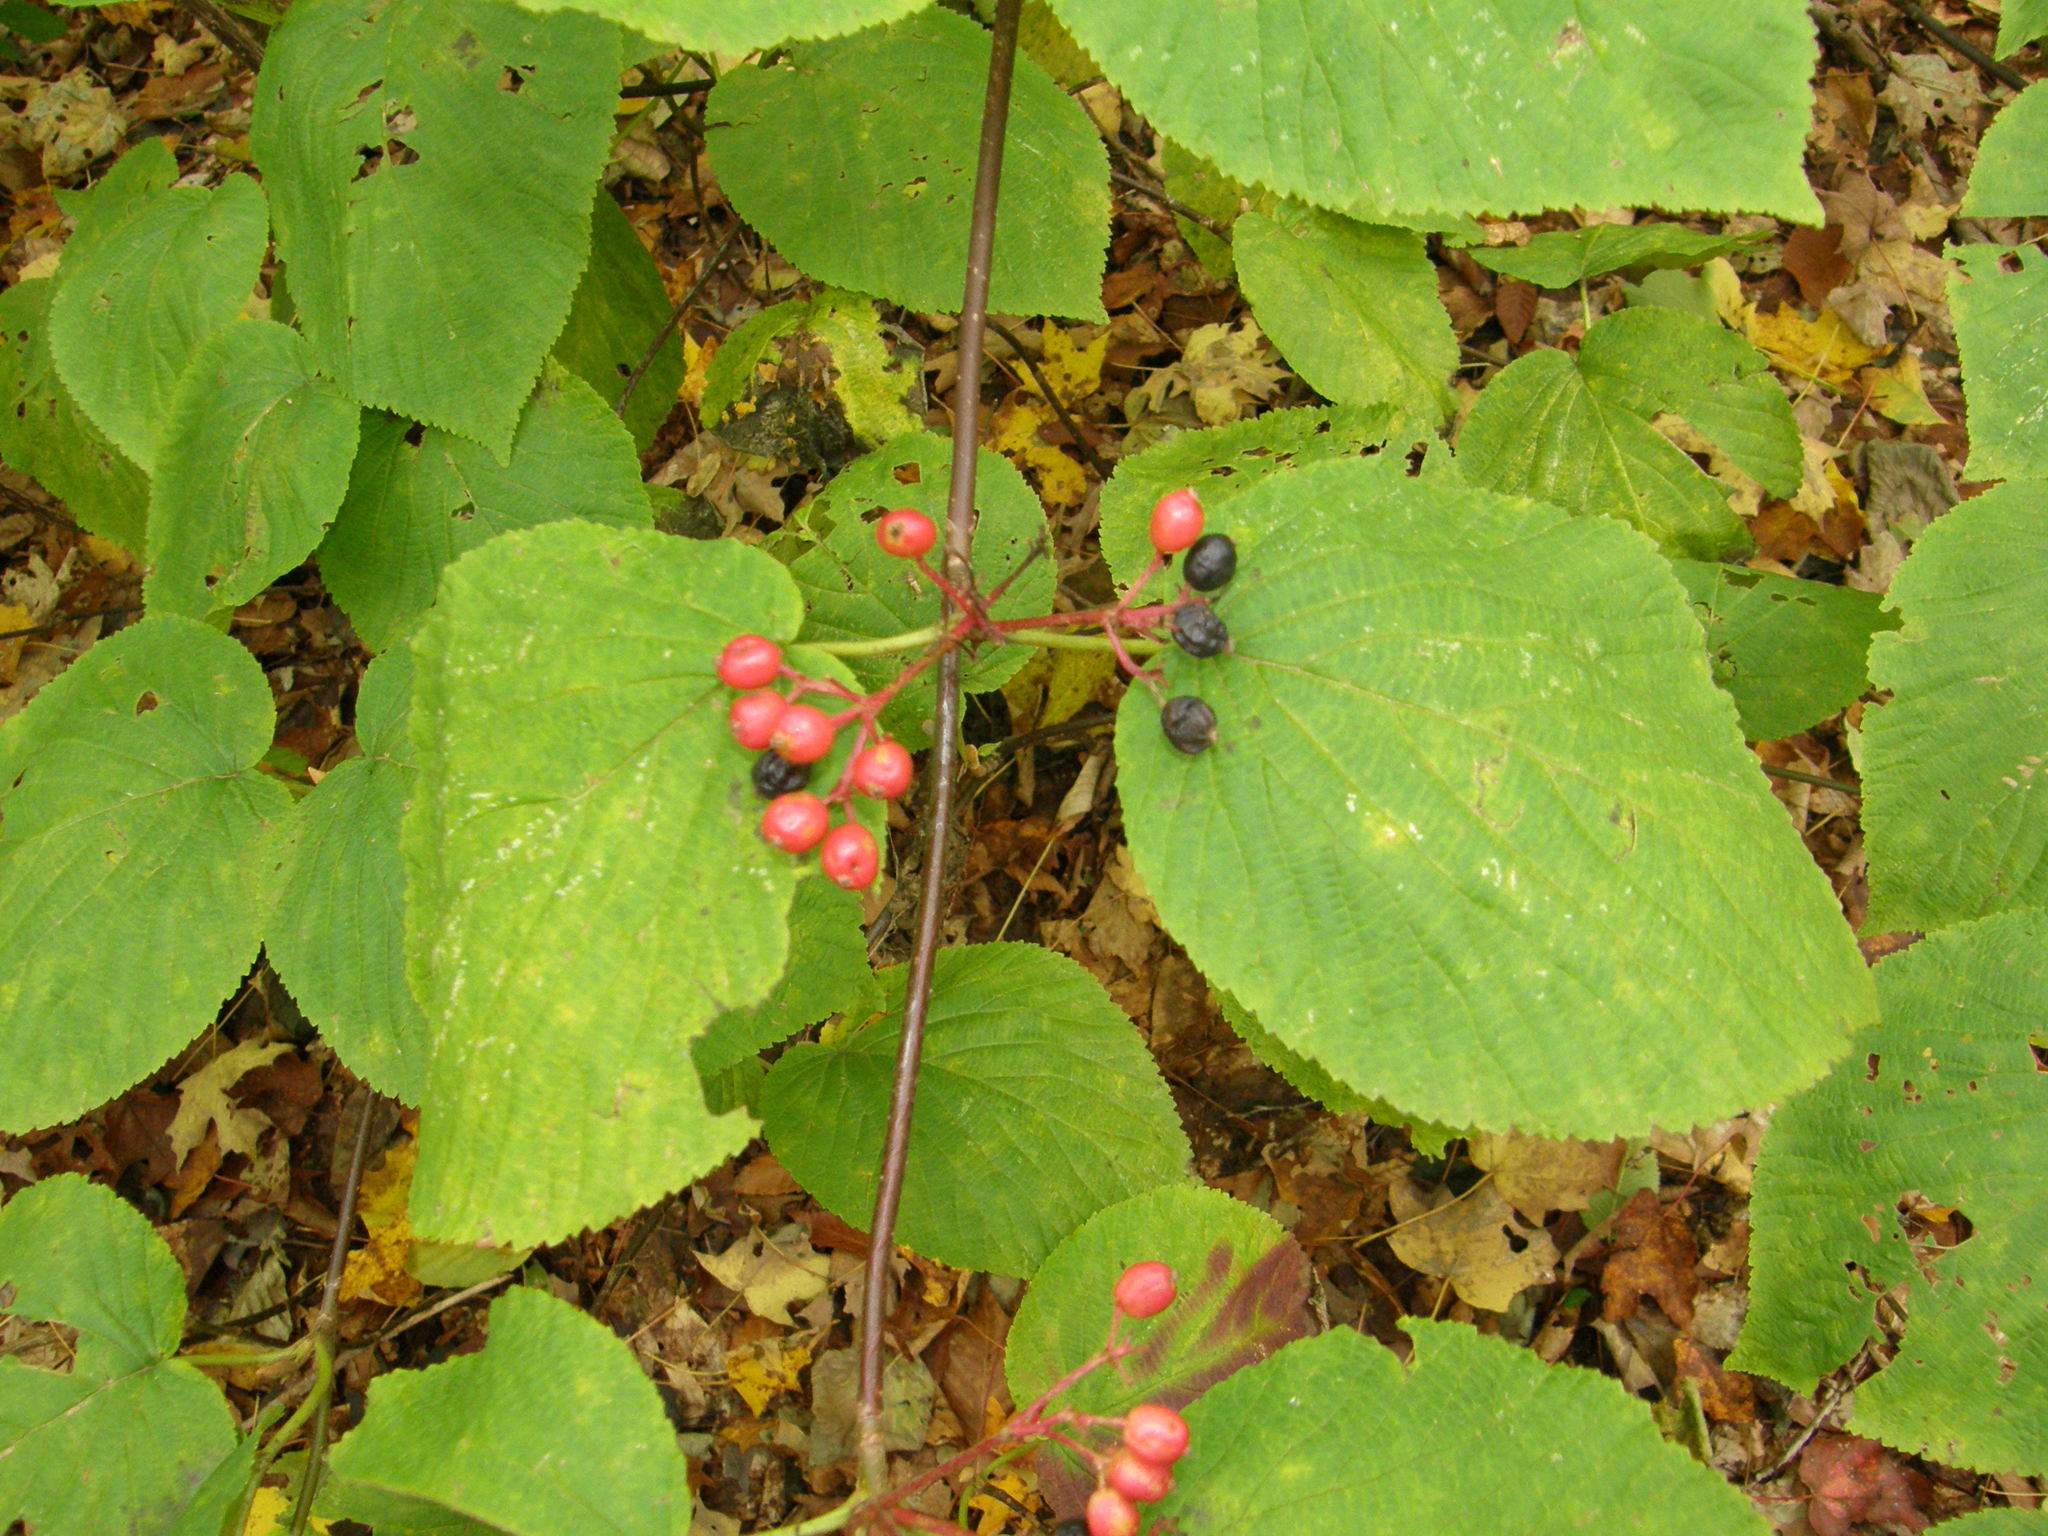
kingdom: Plantae
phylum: Tracheophyta
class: Magnoliopsida
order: Dipsacales
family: Viburnaceae
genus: Viburnum
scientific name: Viburnum lantanoides
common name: Hobblebush
